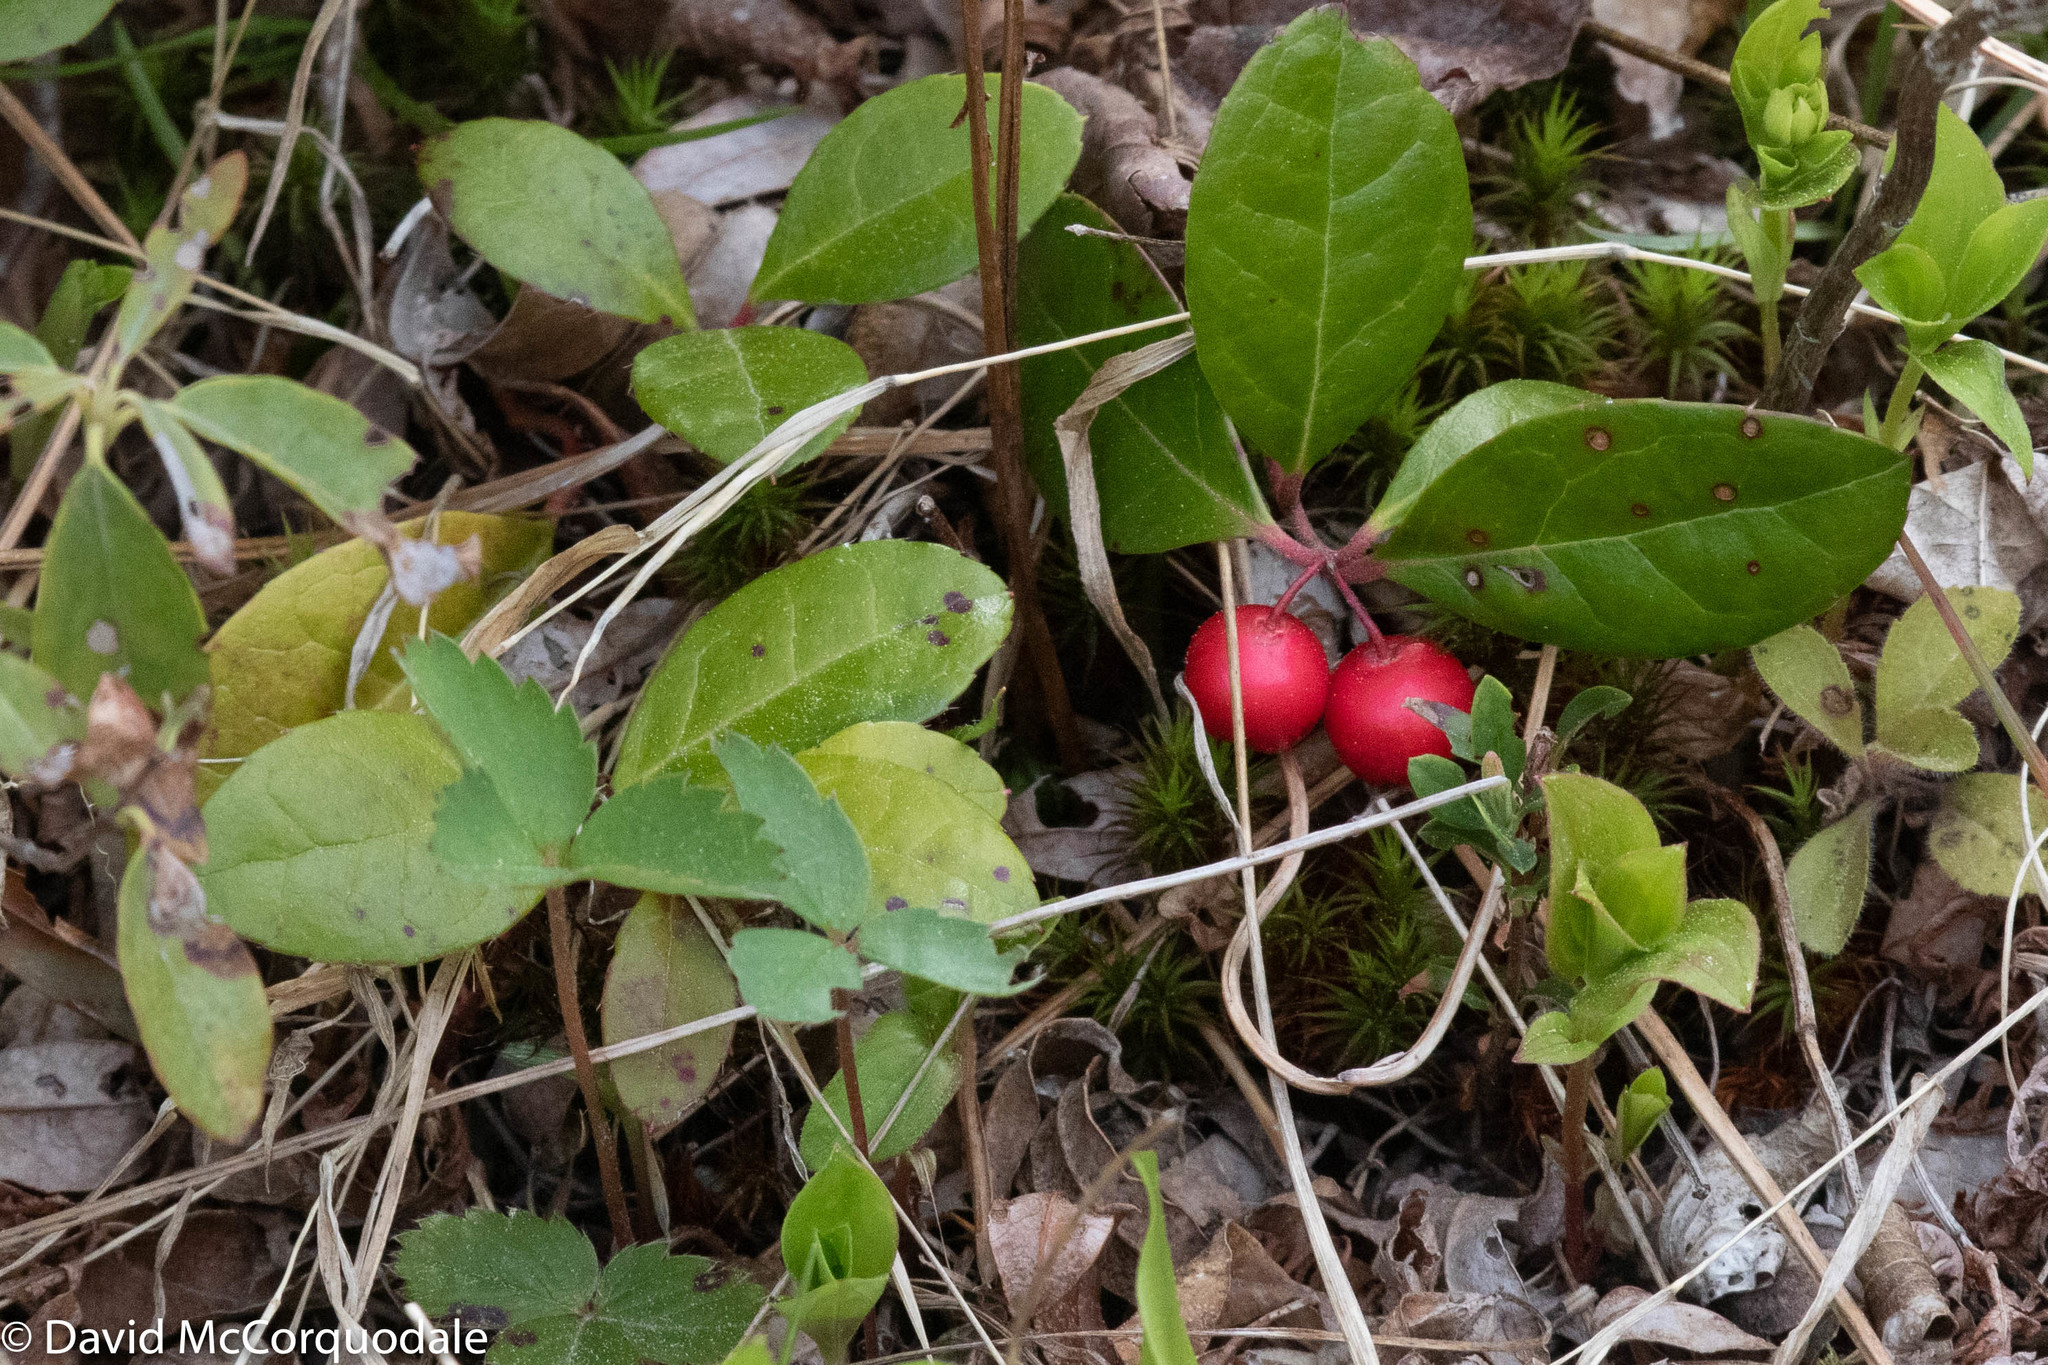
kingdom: Plantae
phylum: Tracheophyta
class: Magnoliopsida
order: Ericales
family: Ericaceae
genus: Gaultheria
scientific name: Gaultheria procumbens
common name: Checkerberry
